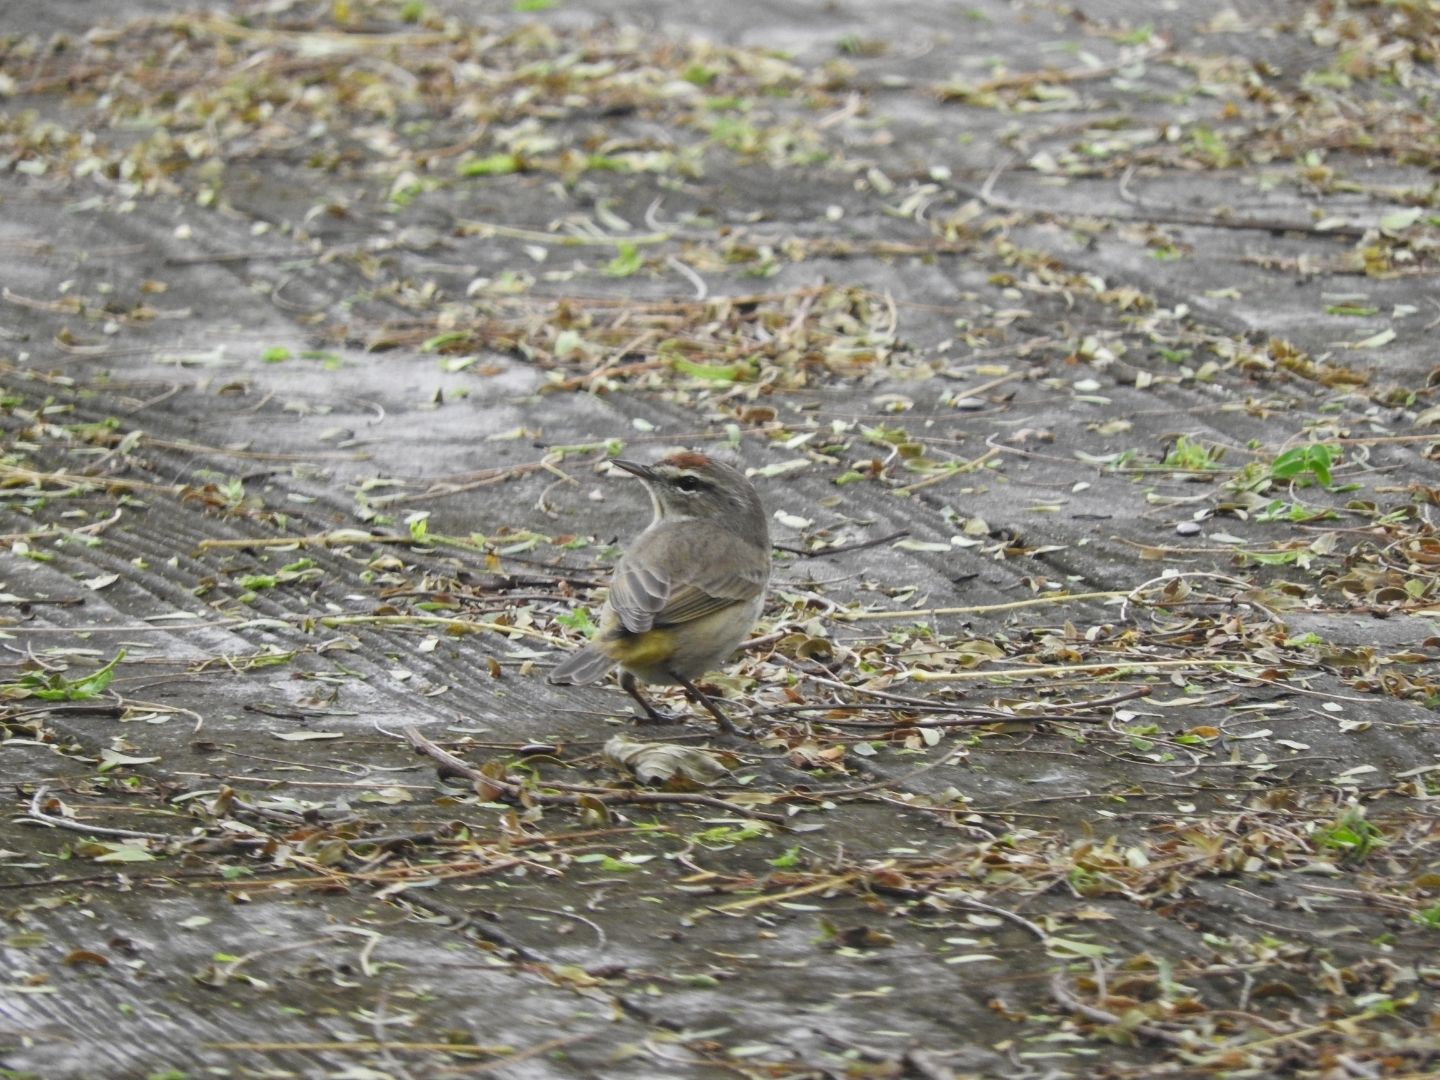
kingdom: Animalia
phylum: Chordata
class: Aves
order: Passeriformes
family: Parulidae
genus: Setophaga
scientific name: Setophaga palmarum
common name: Palm warbler
